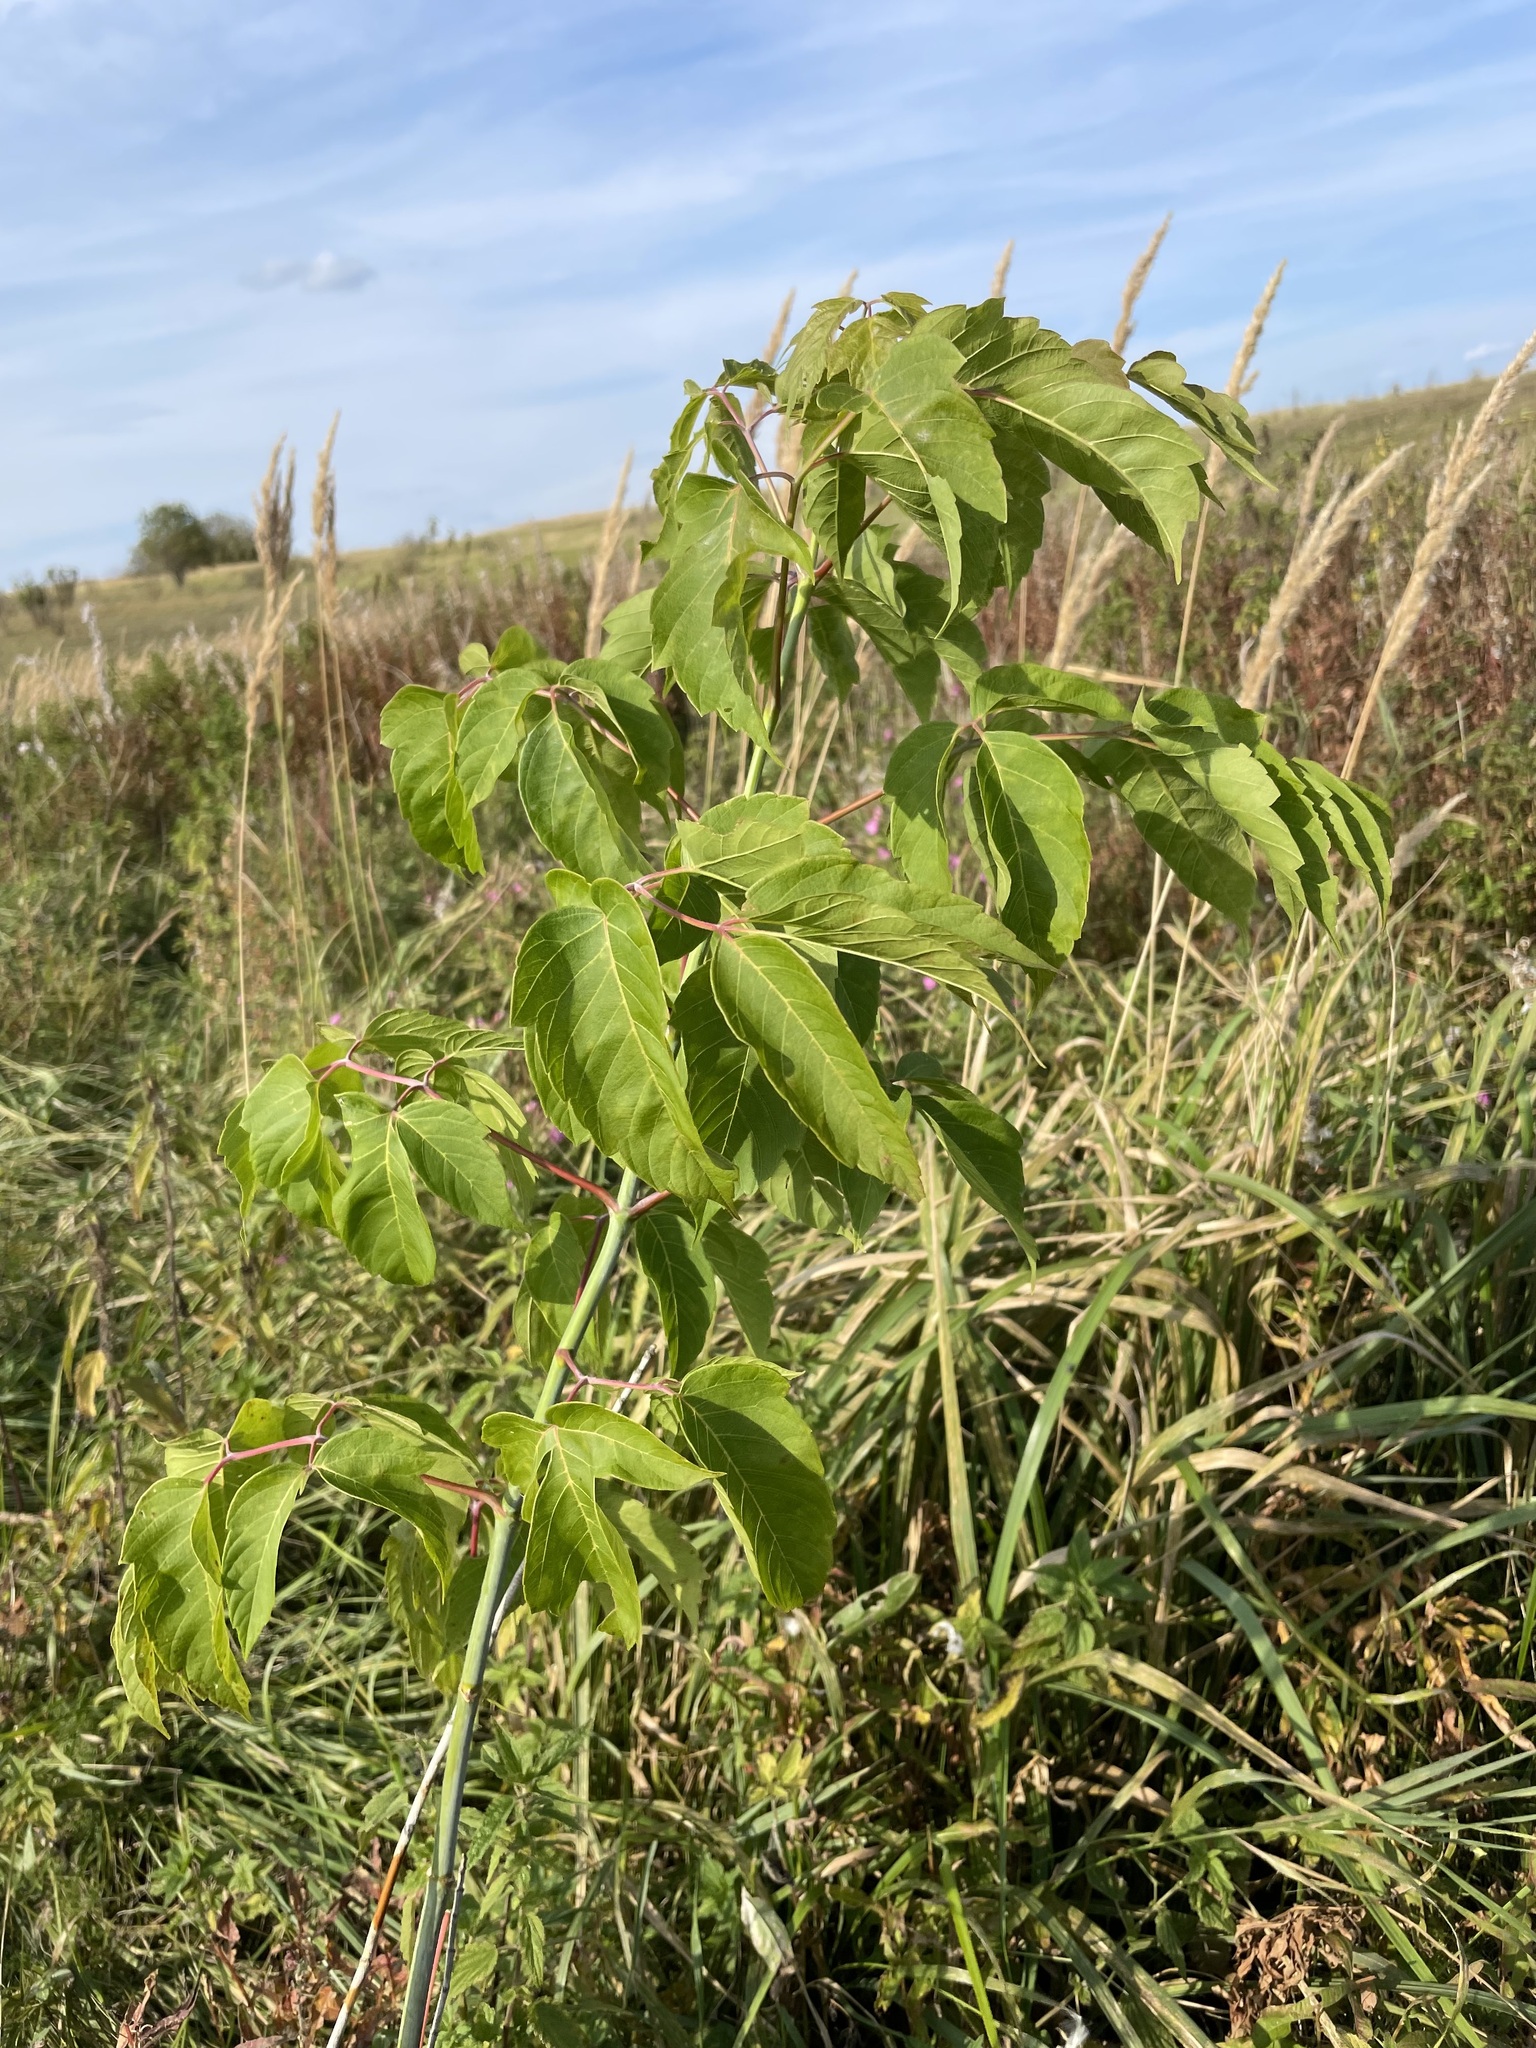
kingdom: Plantae
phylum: Tracheophyta
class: Magnoliopsida
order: Sapindales
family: Sapindaceae
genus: Acer
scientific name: Acer negundo
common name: Ashleaf maple
